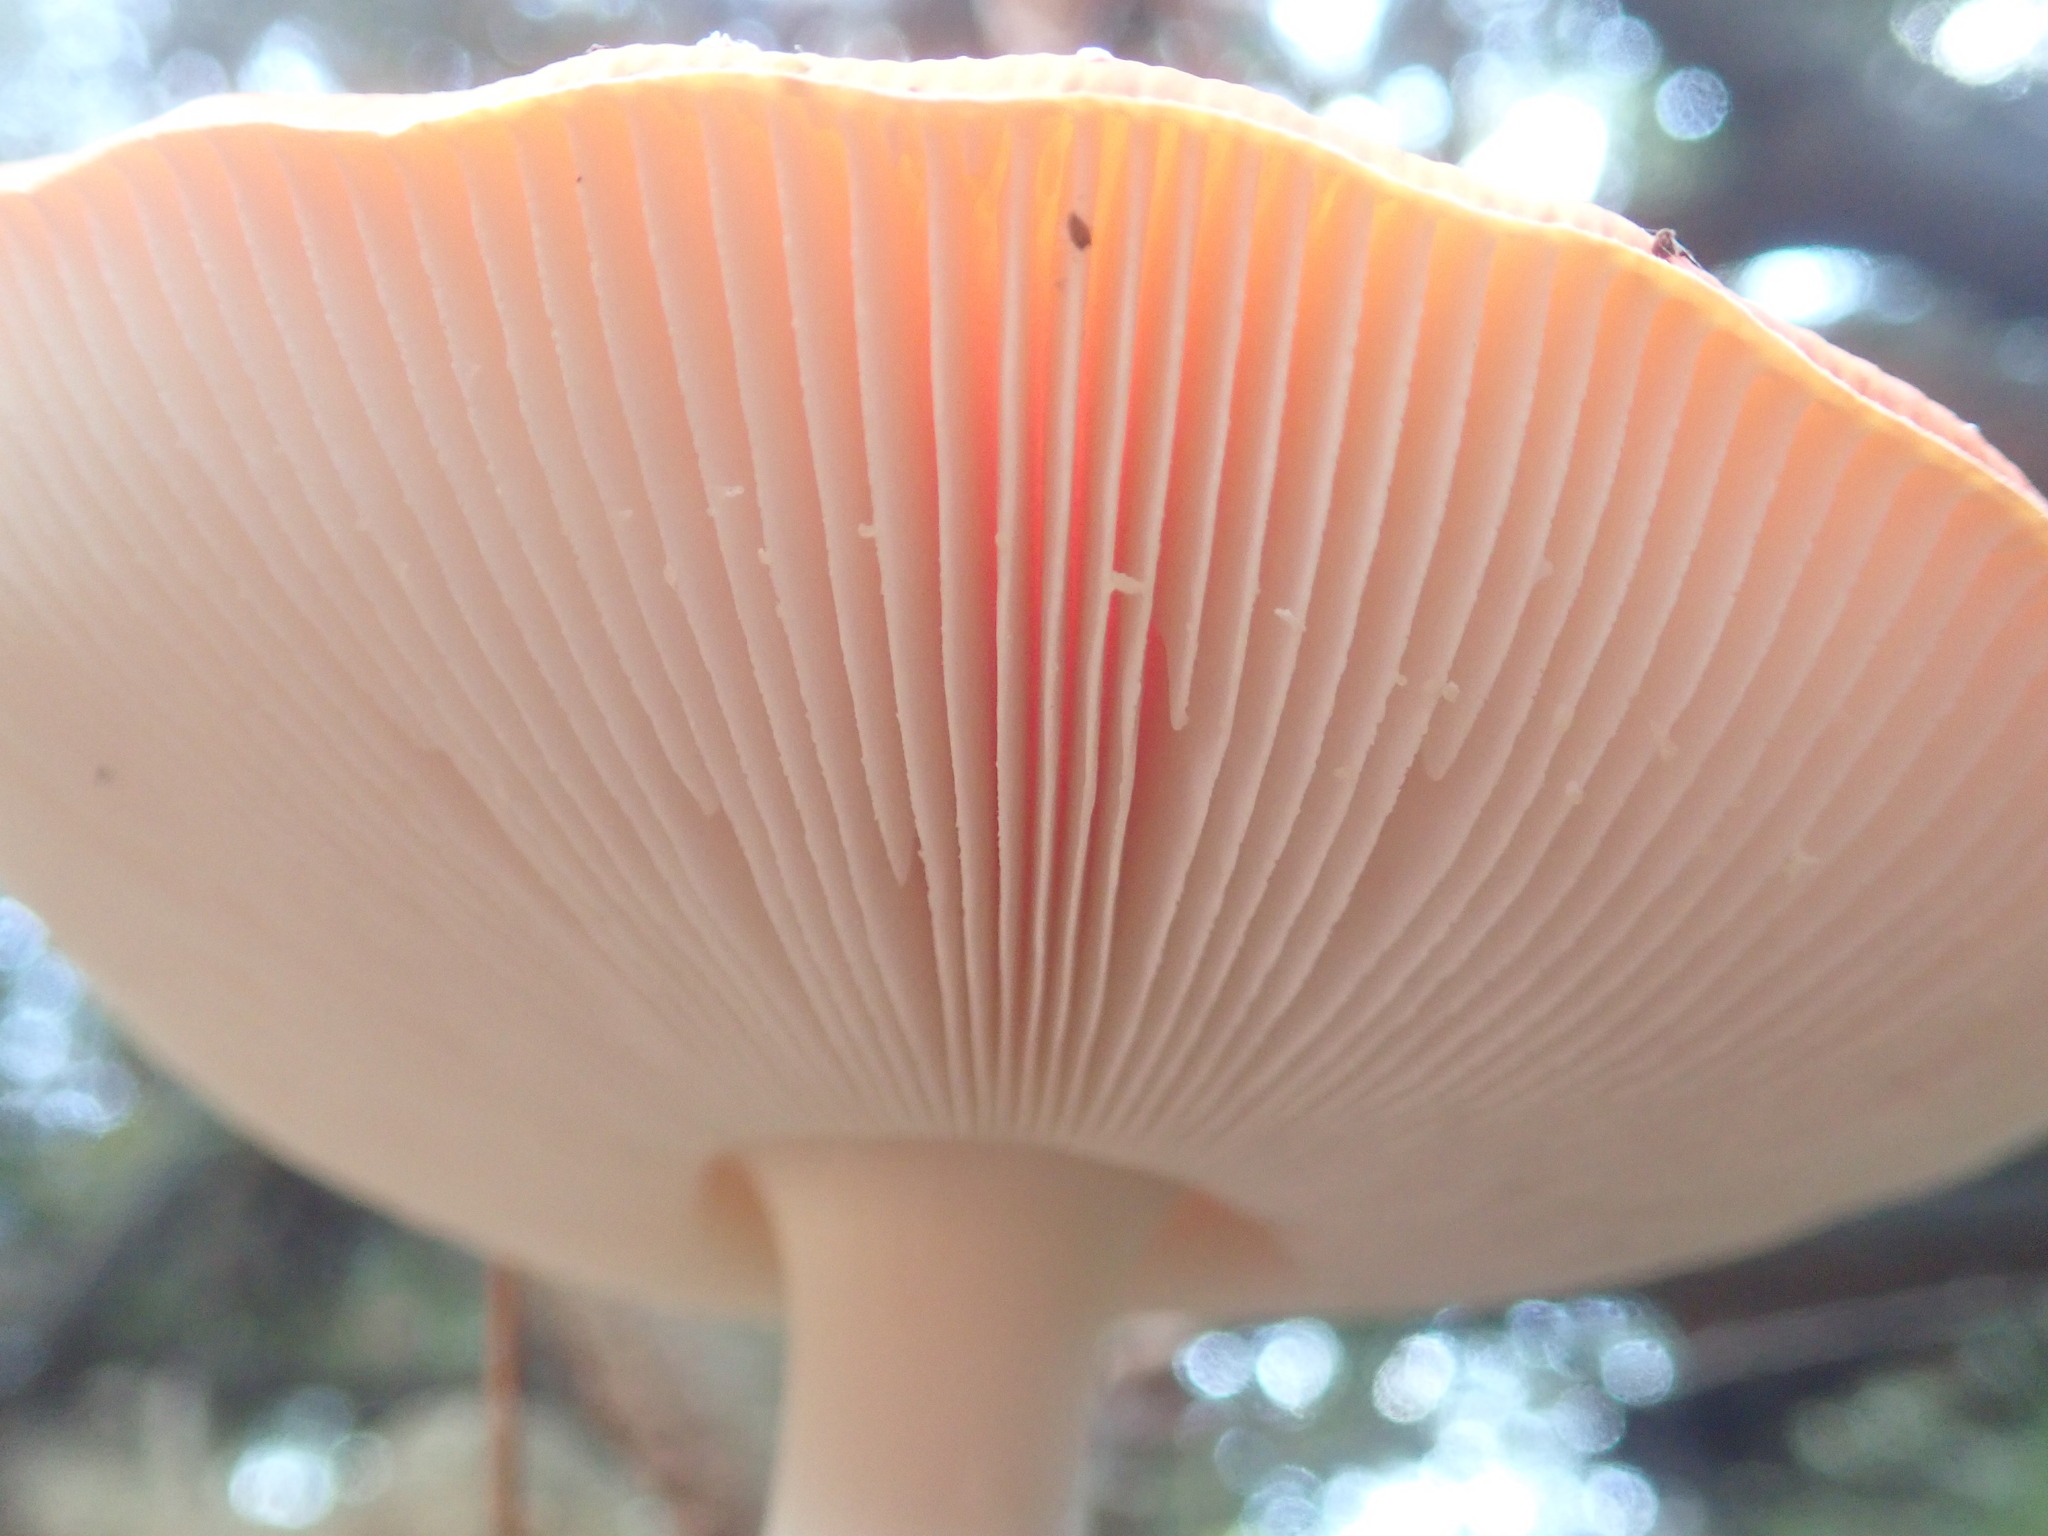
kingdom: Fungi
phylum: Basidiomycota
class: Agaricomycetes
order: Agaricales
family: Amanitaceae
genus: Amanita
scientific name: Amanita muscaria
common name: Fly agaric
